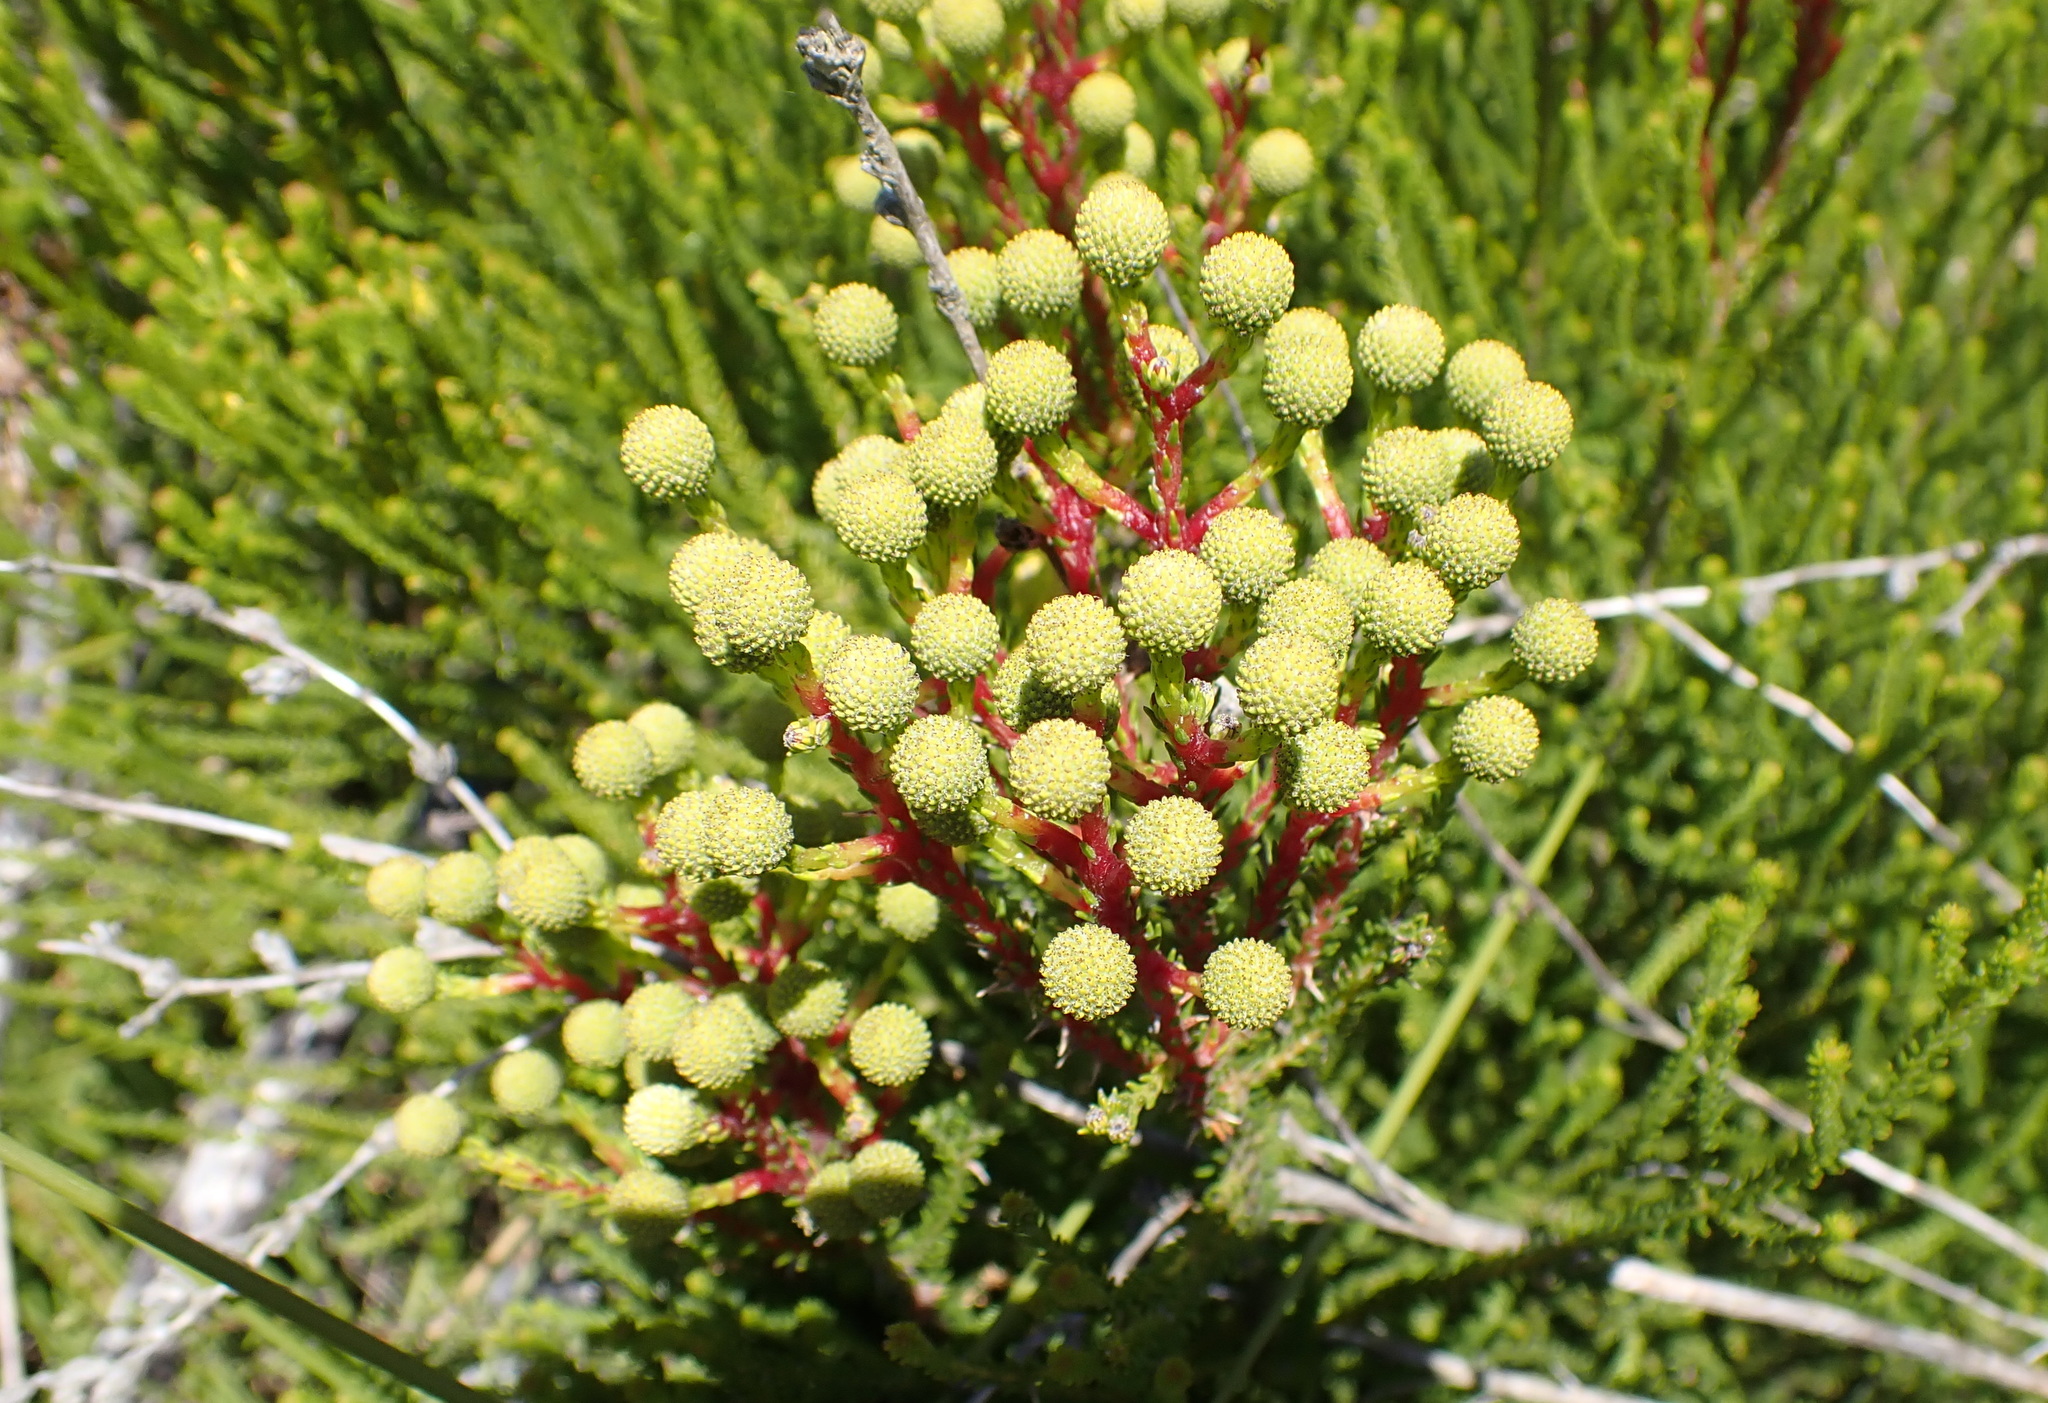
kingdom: Plantae
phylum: Tracheophyta
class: Magnoliopsida
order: Bruniales
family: Bruniaceae
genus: Berzelia
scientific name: Berzelia intermedia
